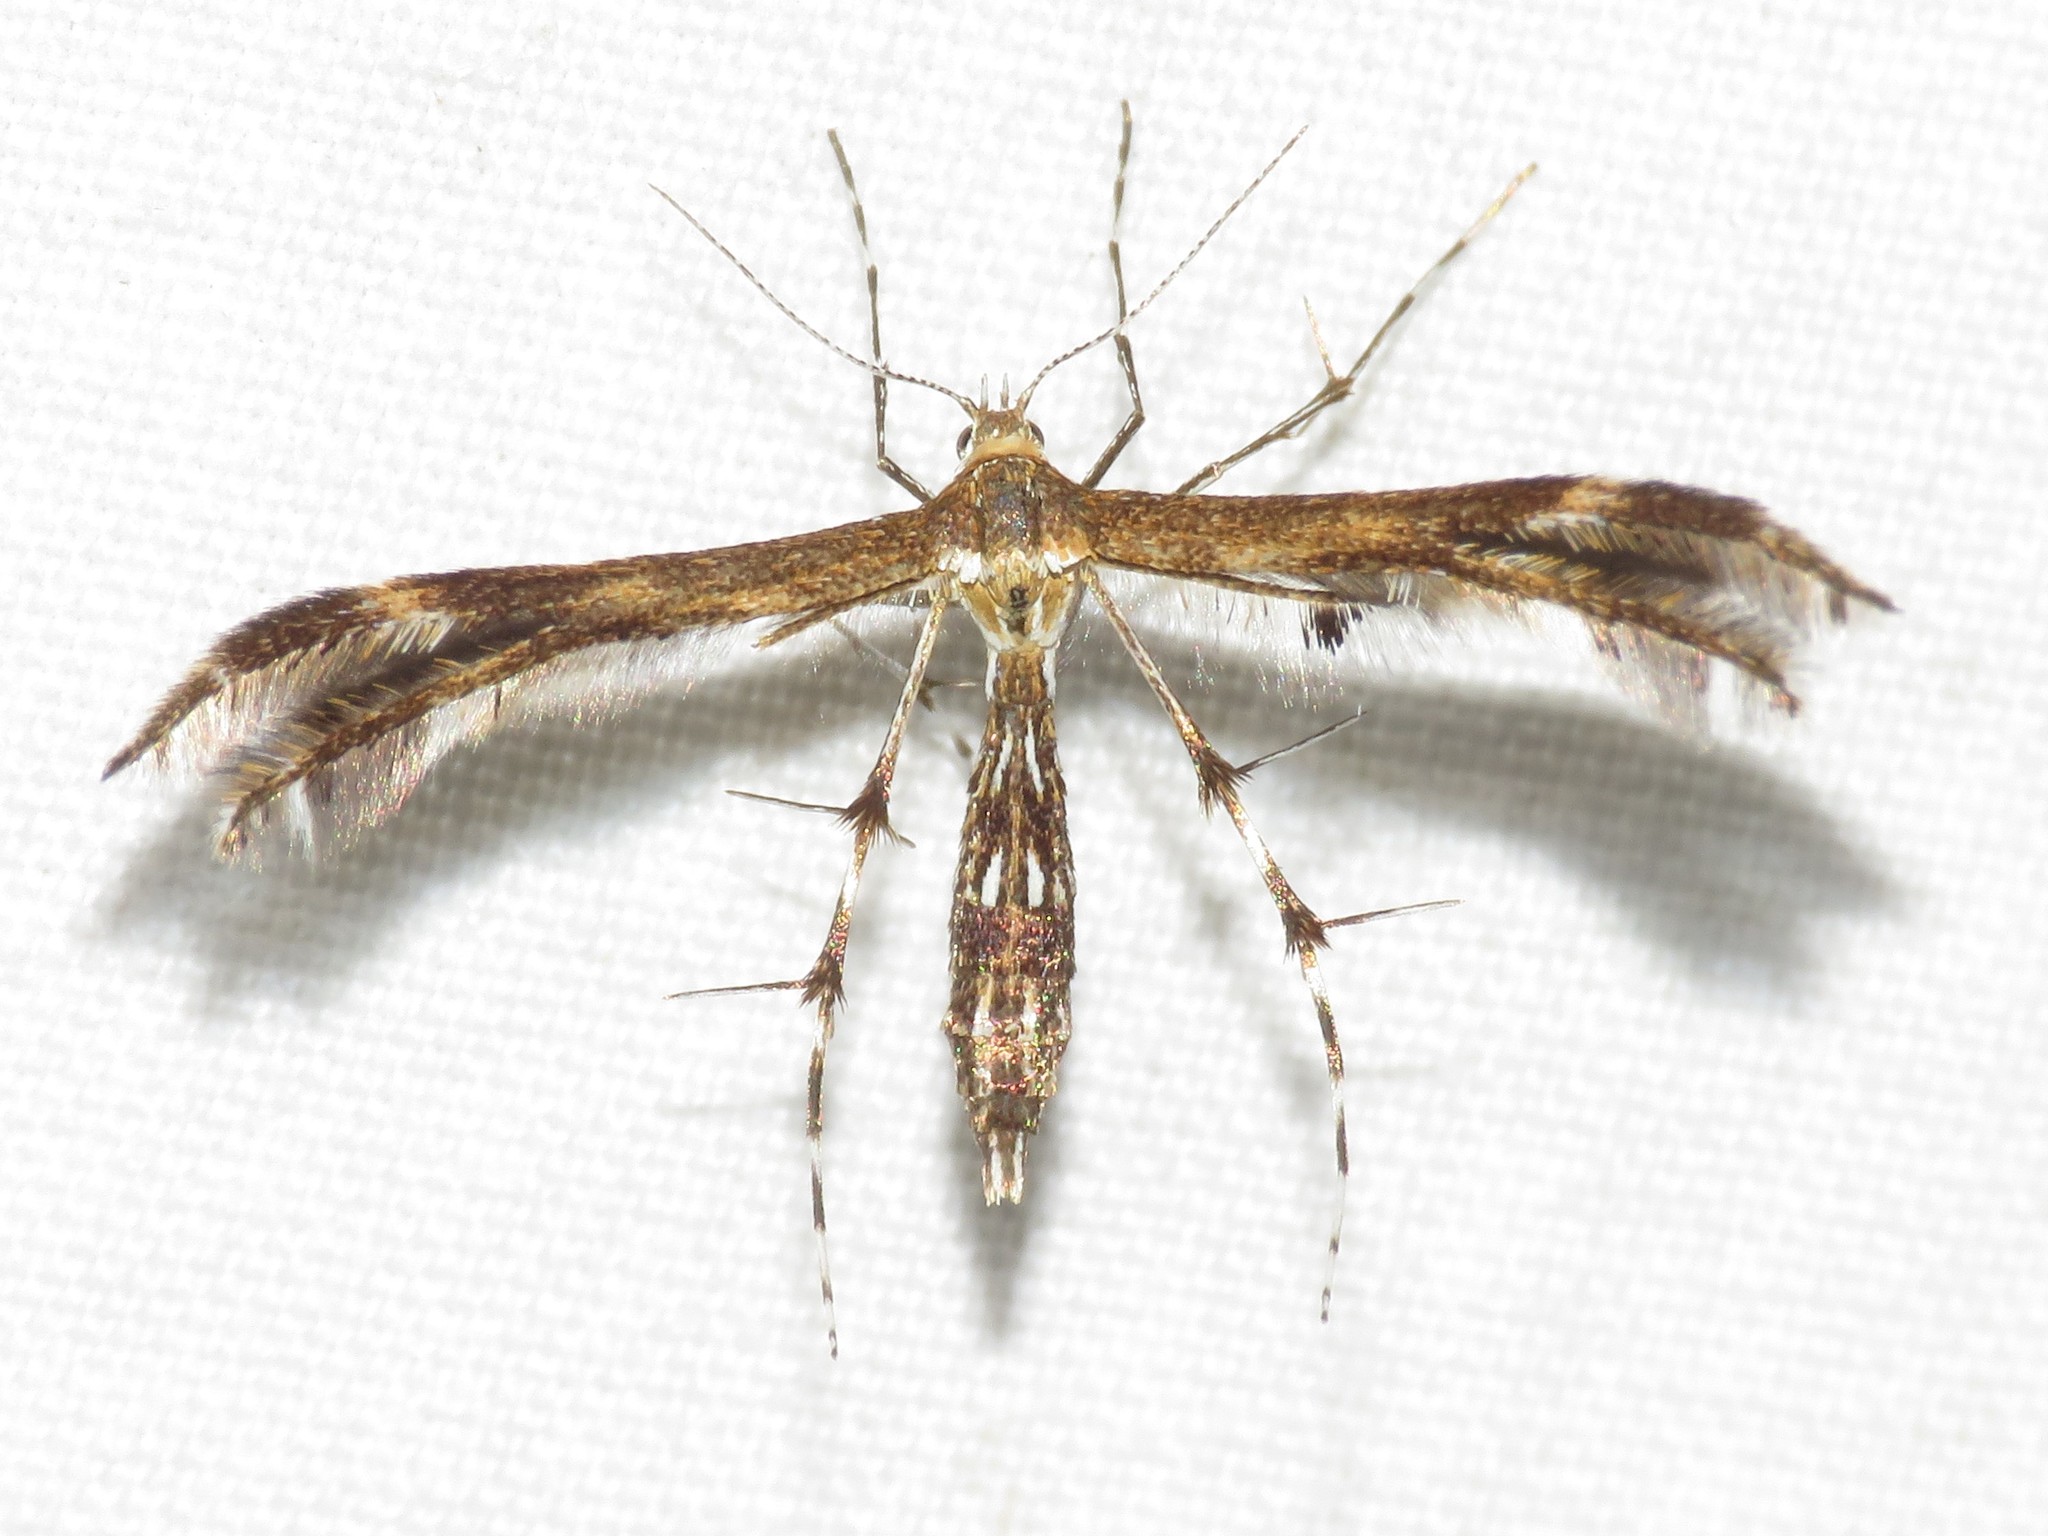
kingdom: Animalia
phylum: Arthropoda
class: Insecta
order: Lepidoptera
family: Pterophoridae
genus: Dejongia
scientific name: Dejongia lobidactylus
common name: Lobed plume moth
